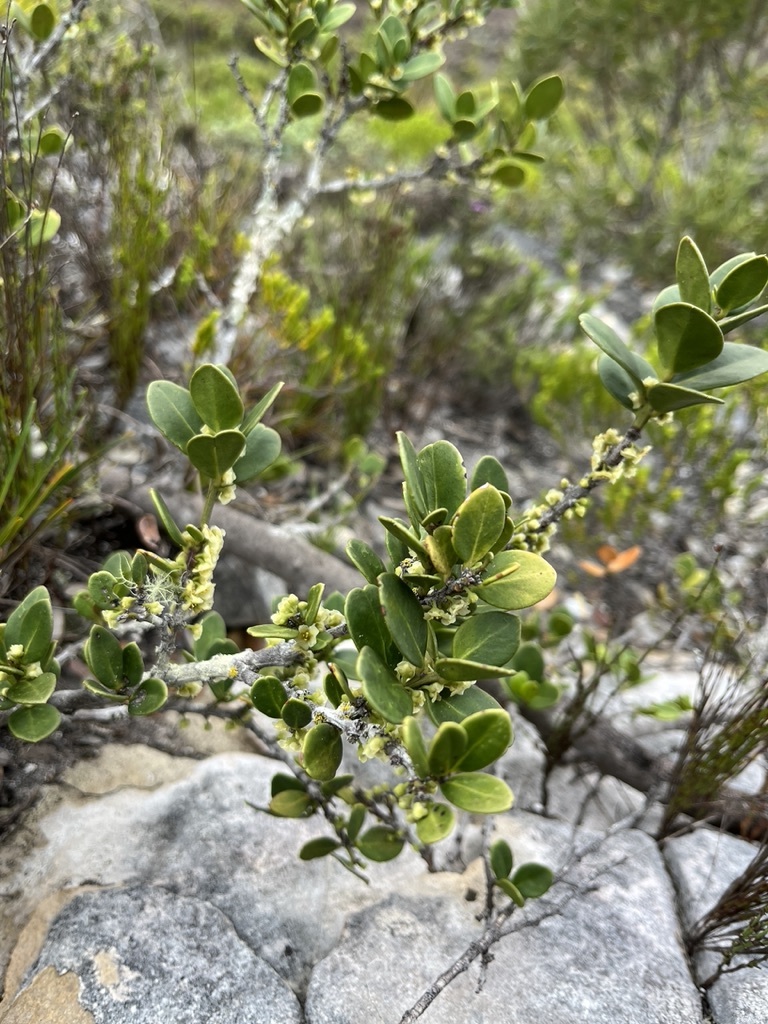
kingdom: Plantae
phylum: Tracheophyta
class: Magnoliopsida
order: Celastrales
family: Celastraceae
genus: Robsonodendron
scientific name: Robsonodendron maritimum
